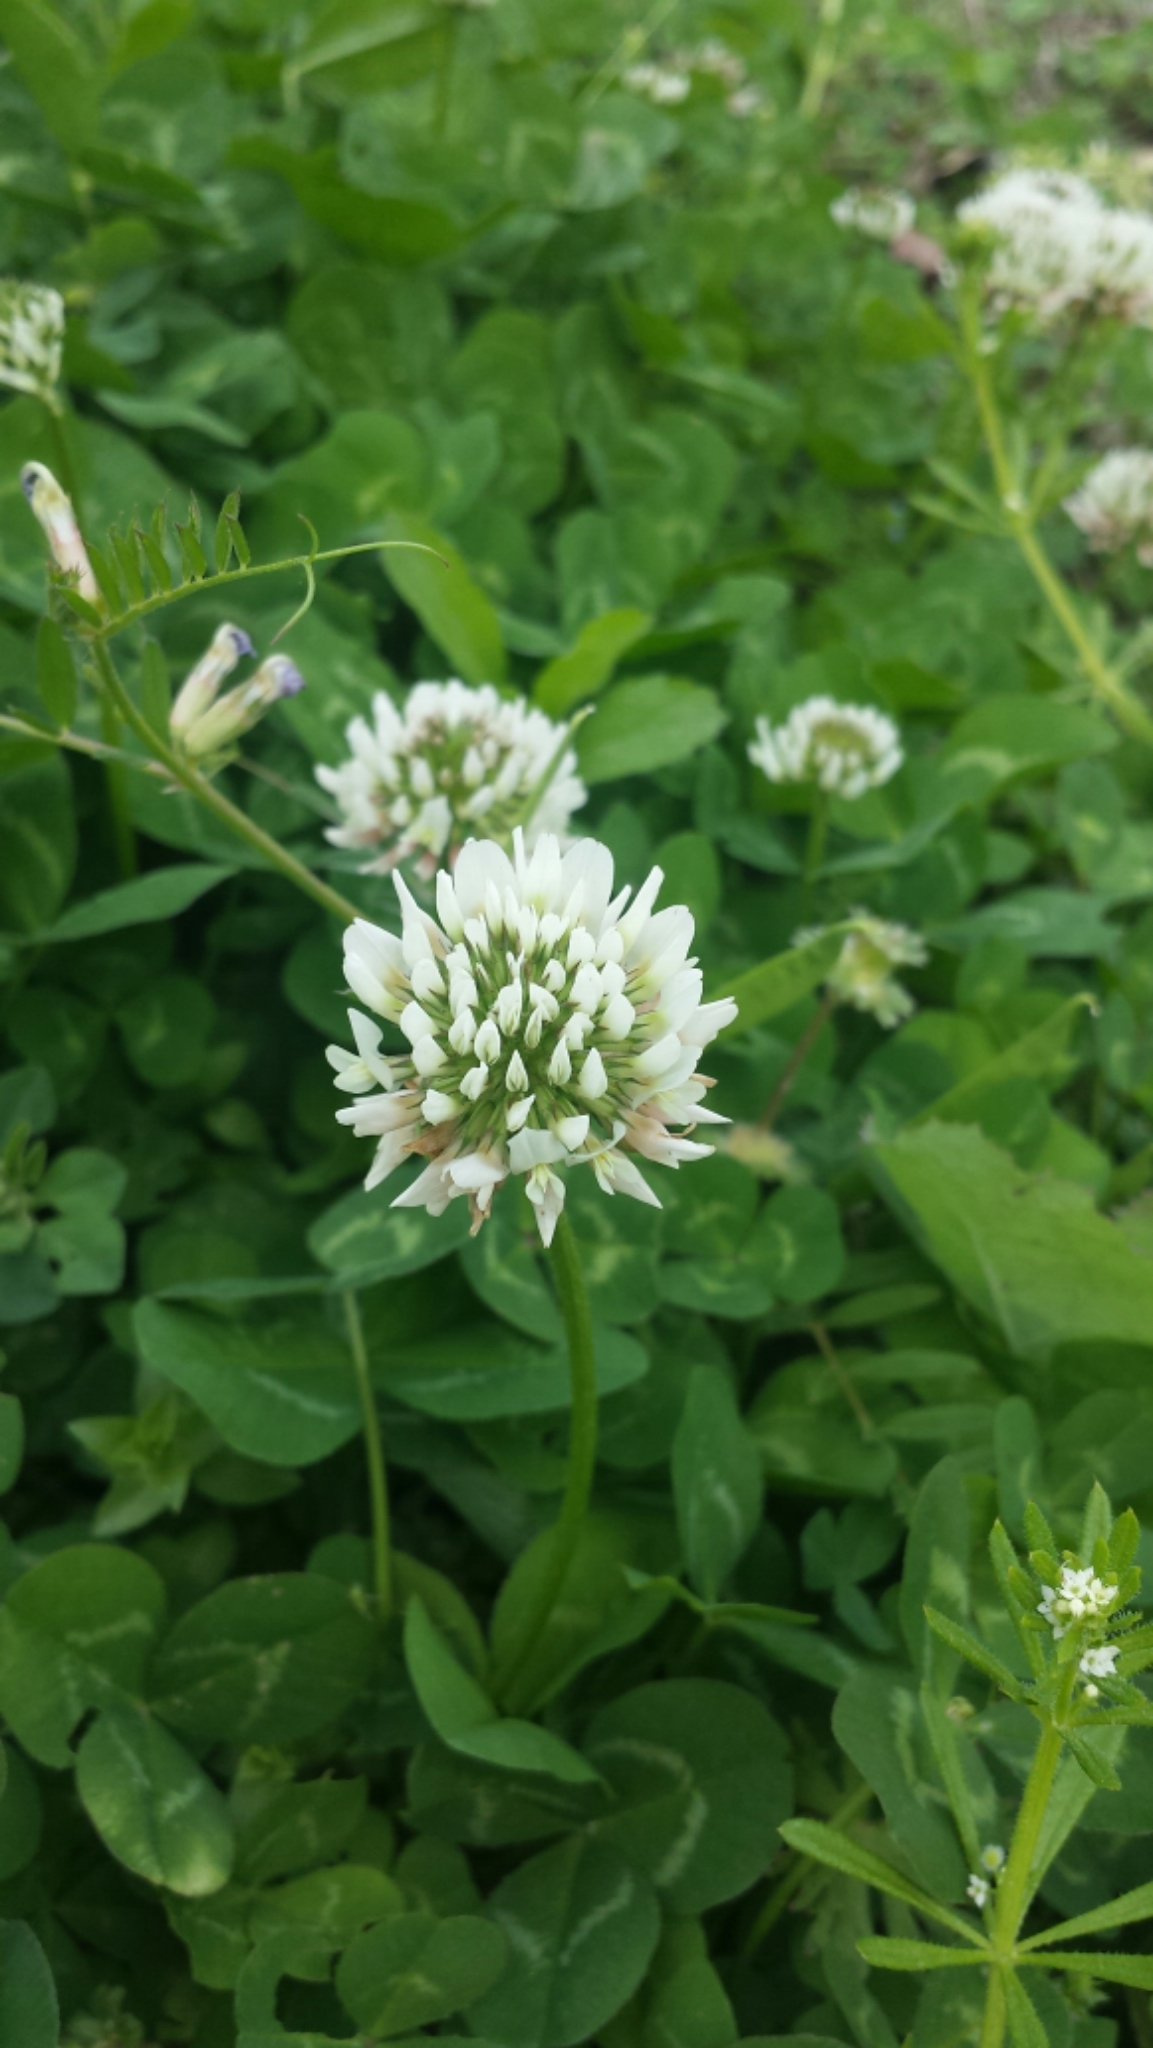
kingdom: Plantae
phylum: Tracheophyta
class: Magnoliopsida
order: Fabales
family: Fabaceae
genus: Trifolium
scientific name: Trifolium repens
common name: White clover
